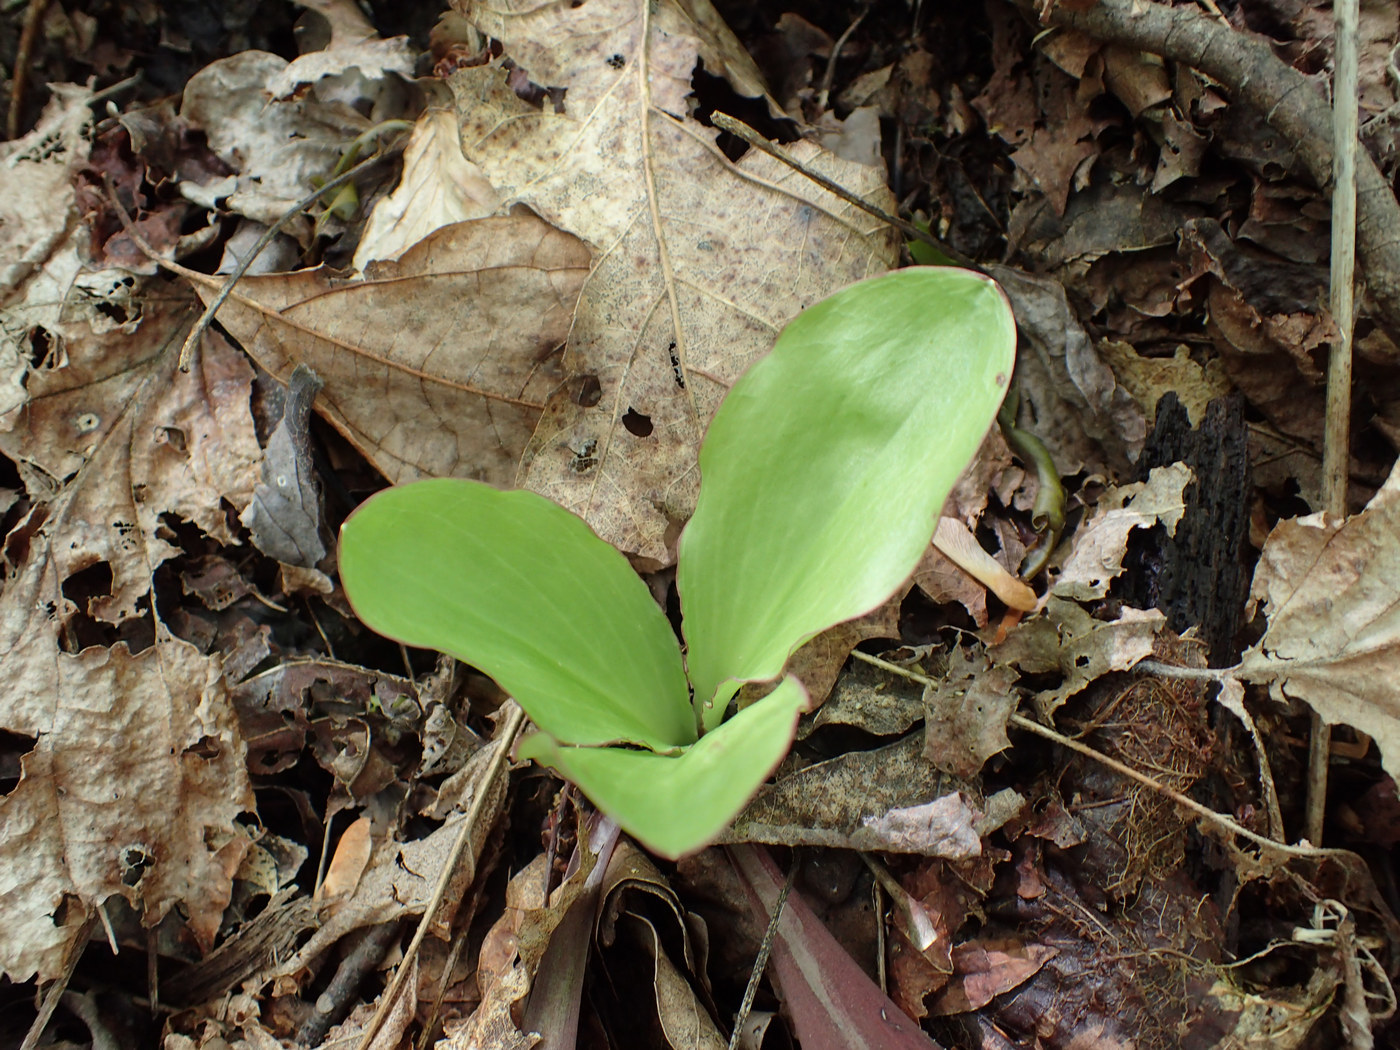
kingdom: Plantae
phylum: Tracheophyta
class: Liliopsida
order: Liliales
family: Melanthiaceae
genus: Chamaelirium
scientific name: Chamaelirium luteum
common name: Fairy-wand
